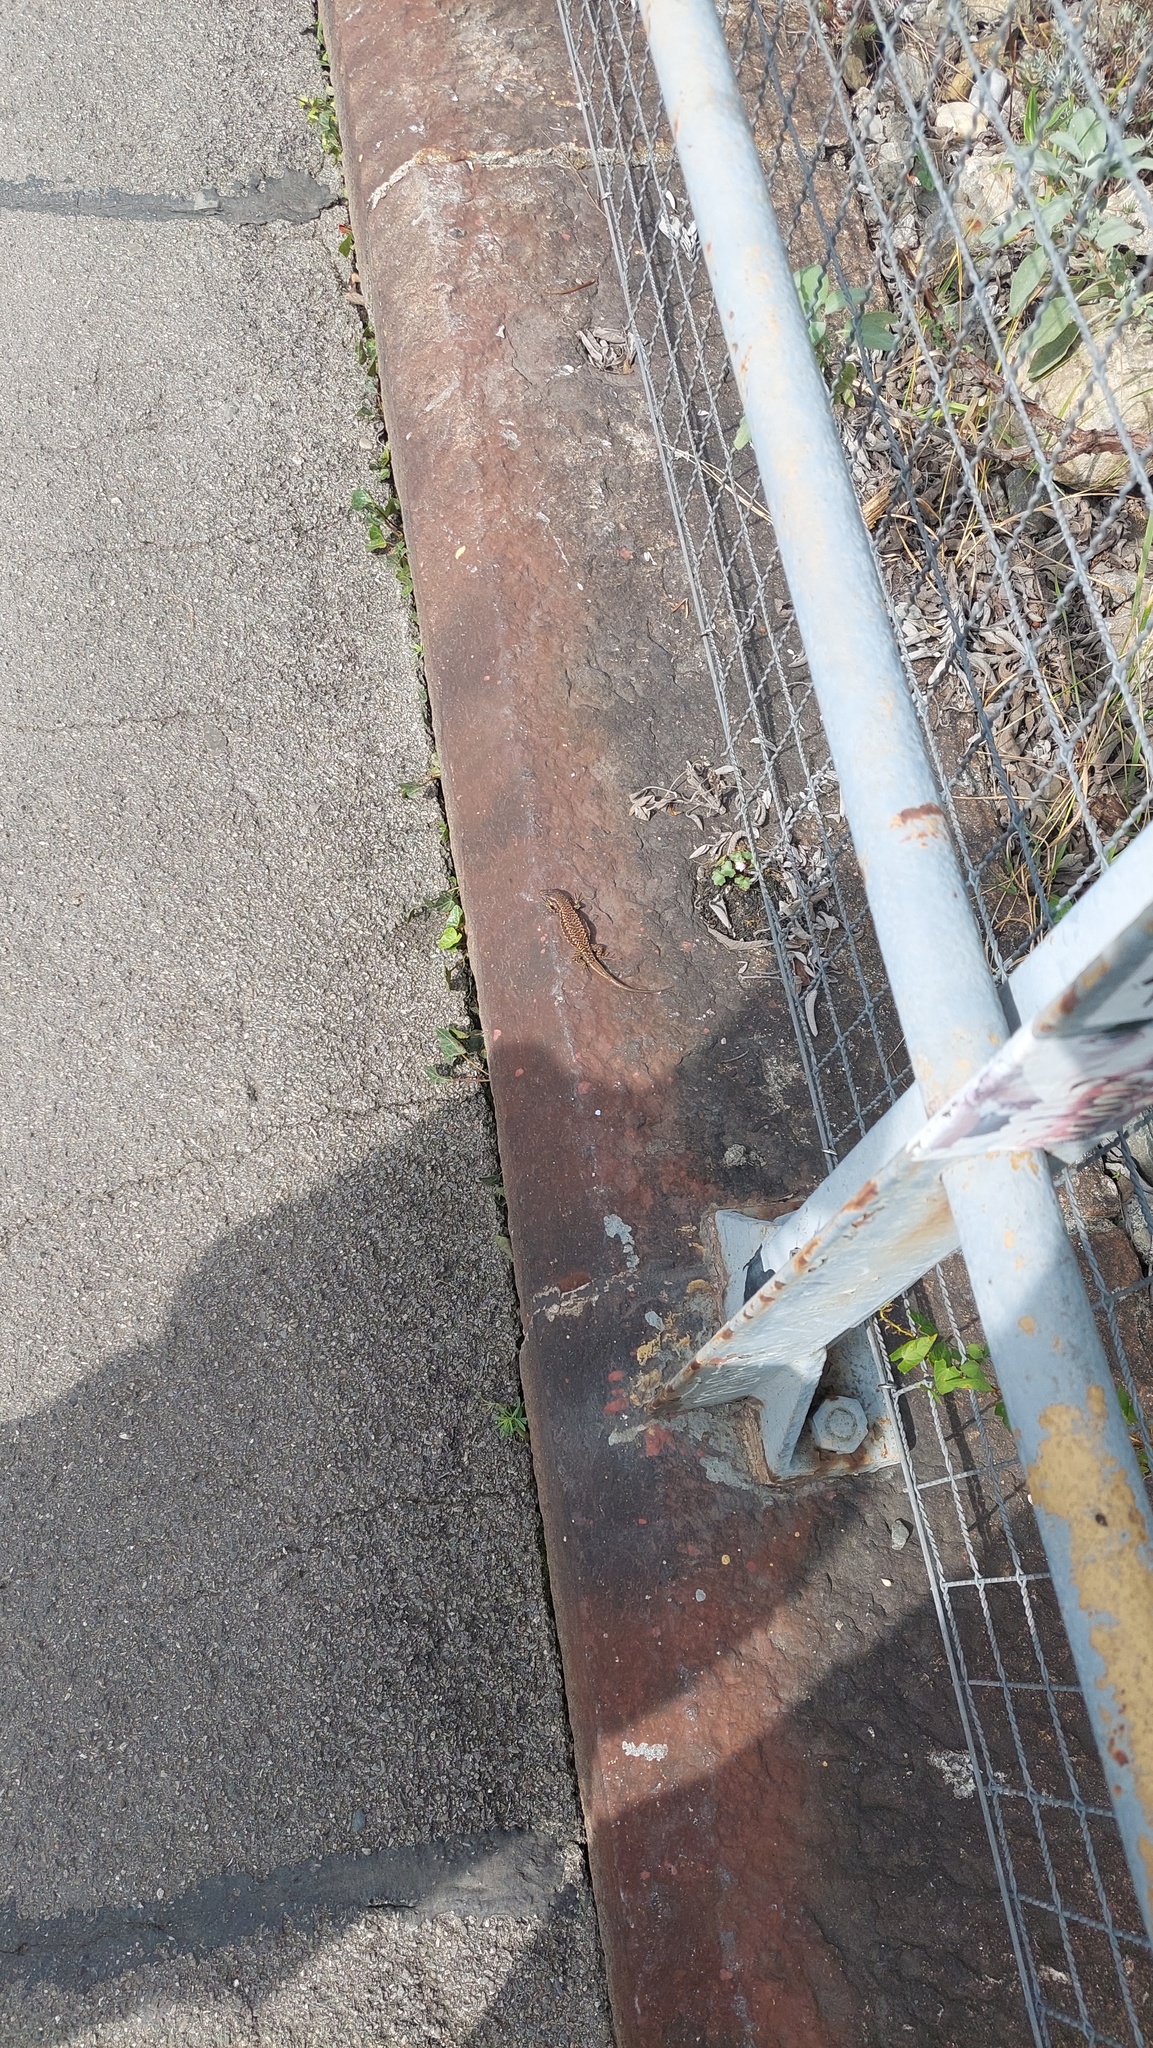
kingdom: Animalia
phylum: Chordata
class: Squamata
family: Lacertidae
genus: Podarcis
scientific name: Podarcis muralis
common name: Common wall lizard
